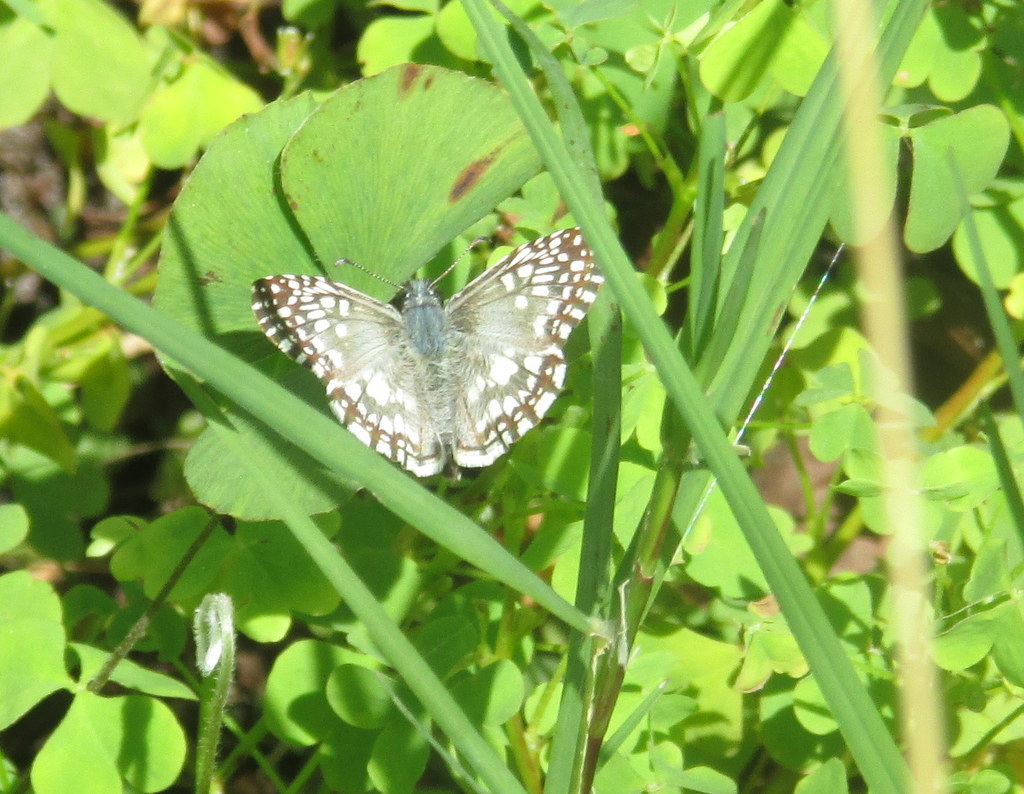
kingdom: Animalia
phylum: Arthropoda
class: Insecta
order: Lepidoptera
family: Hesperiidae
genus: Pyrgus
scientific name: Pyrgus oileus
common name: Tropical checkered-skipper
